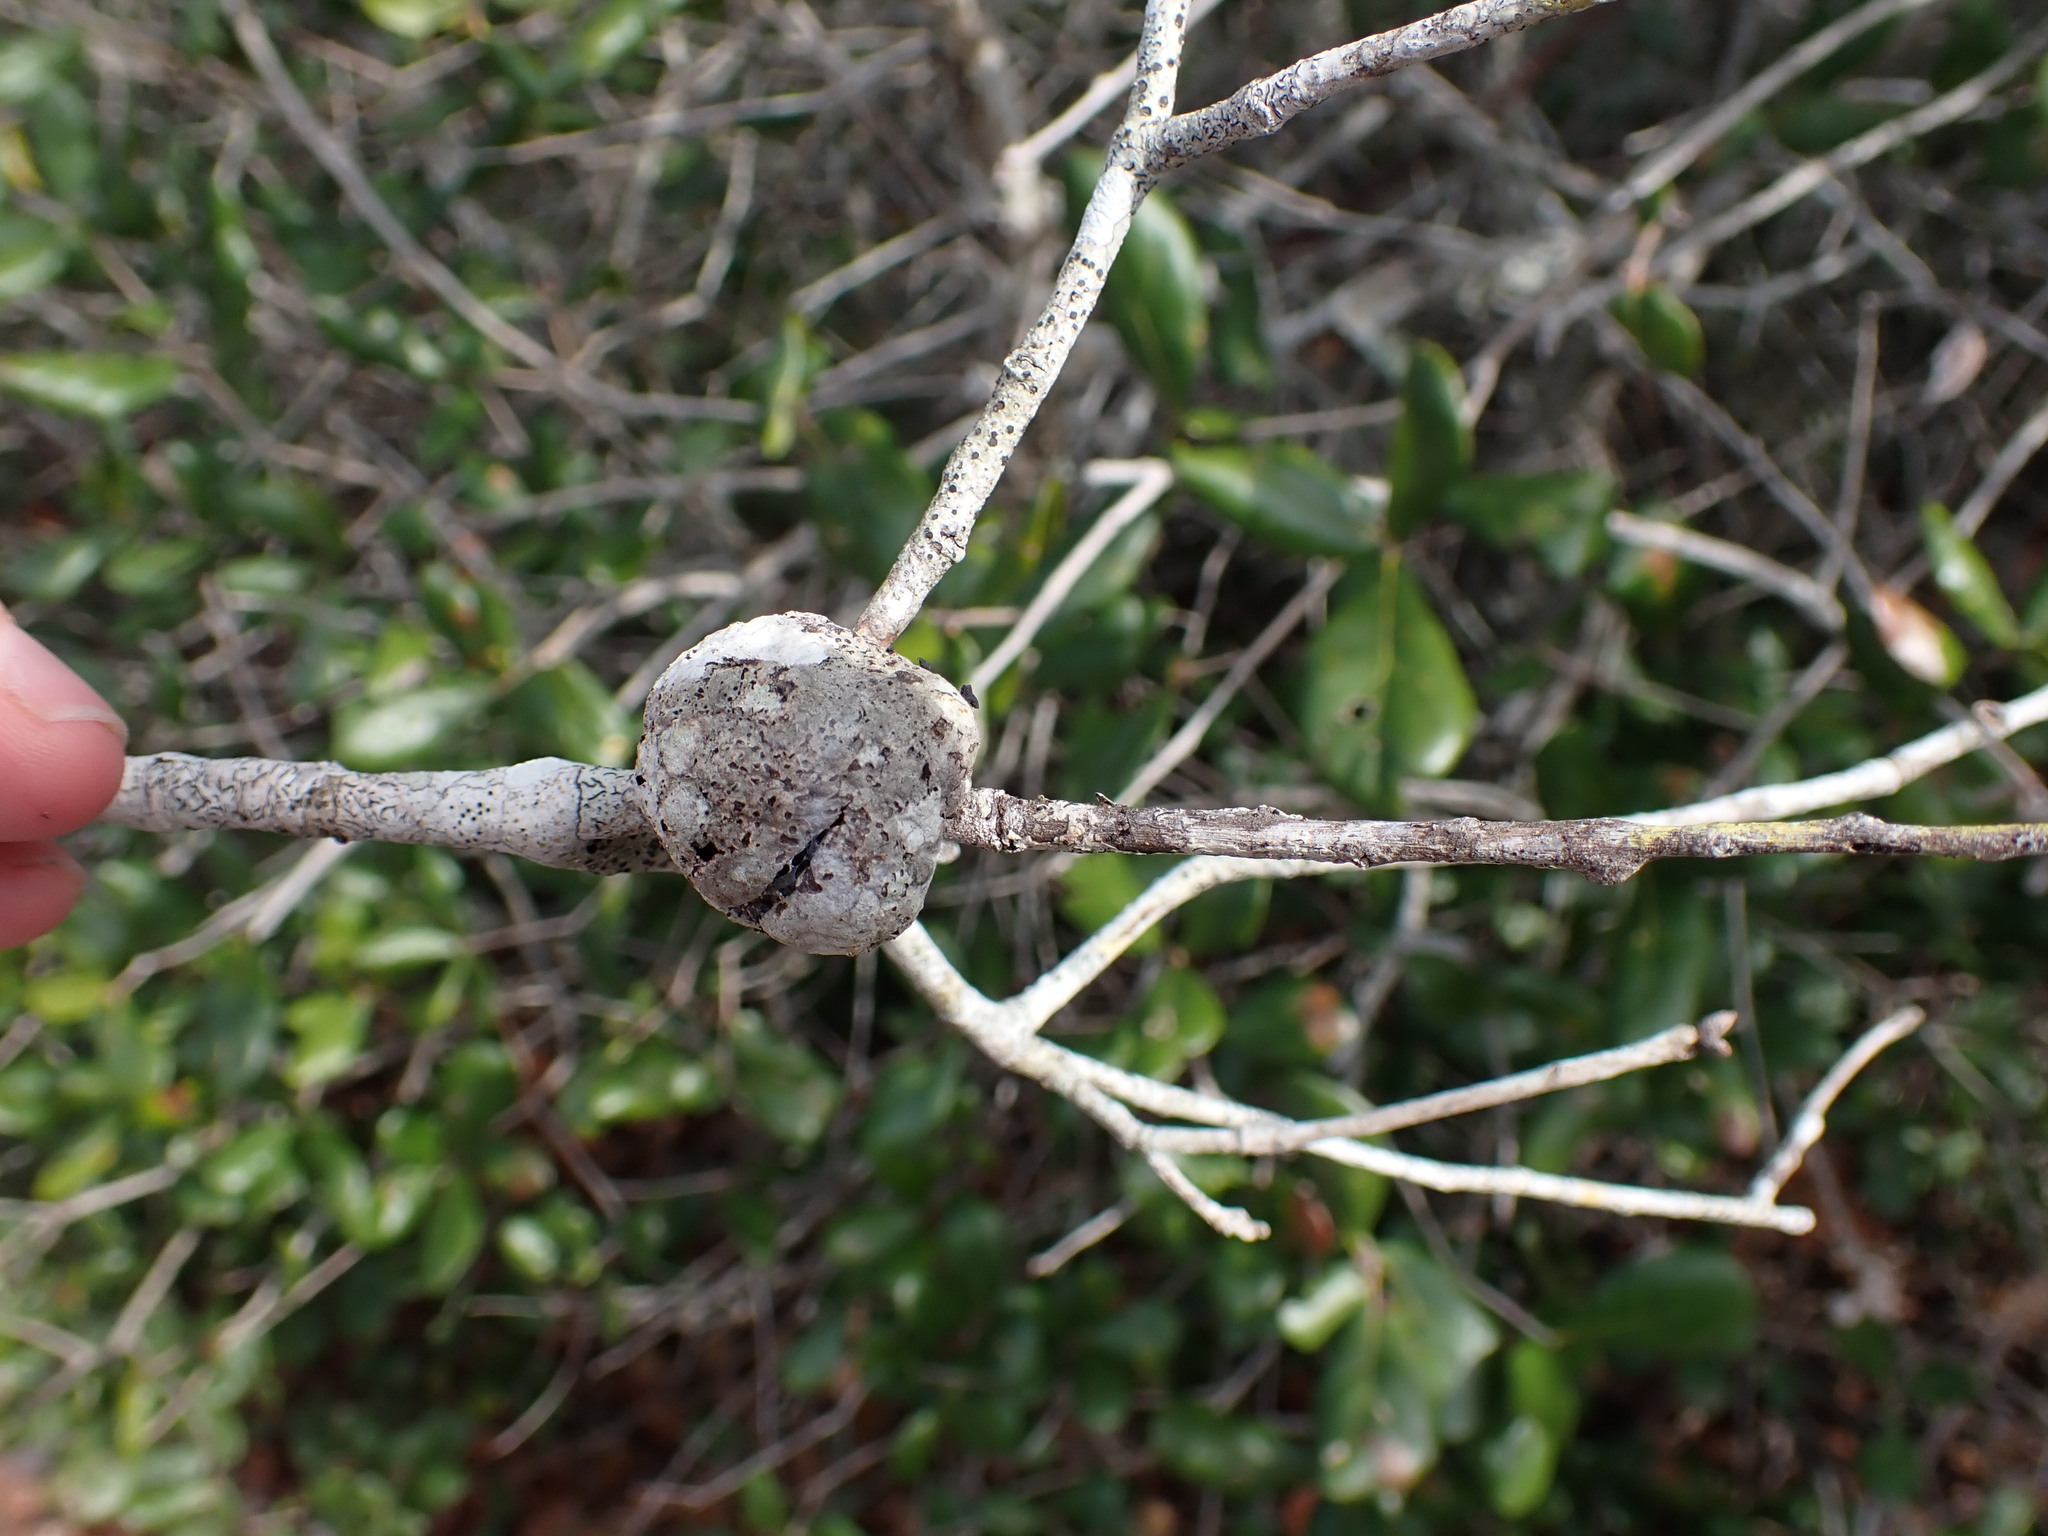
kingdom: Animalia
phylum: Arthropoda
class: Insecta
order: Hymenoptera
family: Cynipidae
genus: Callirhytis
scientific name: Callirhytis
